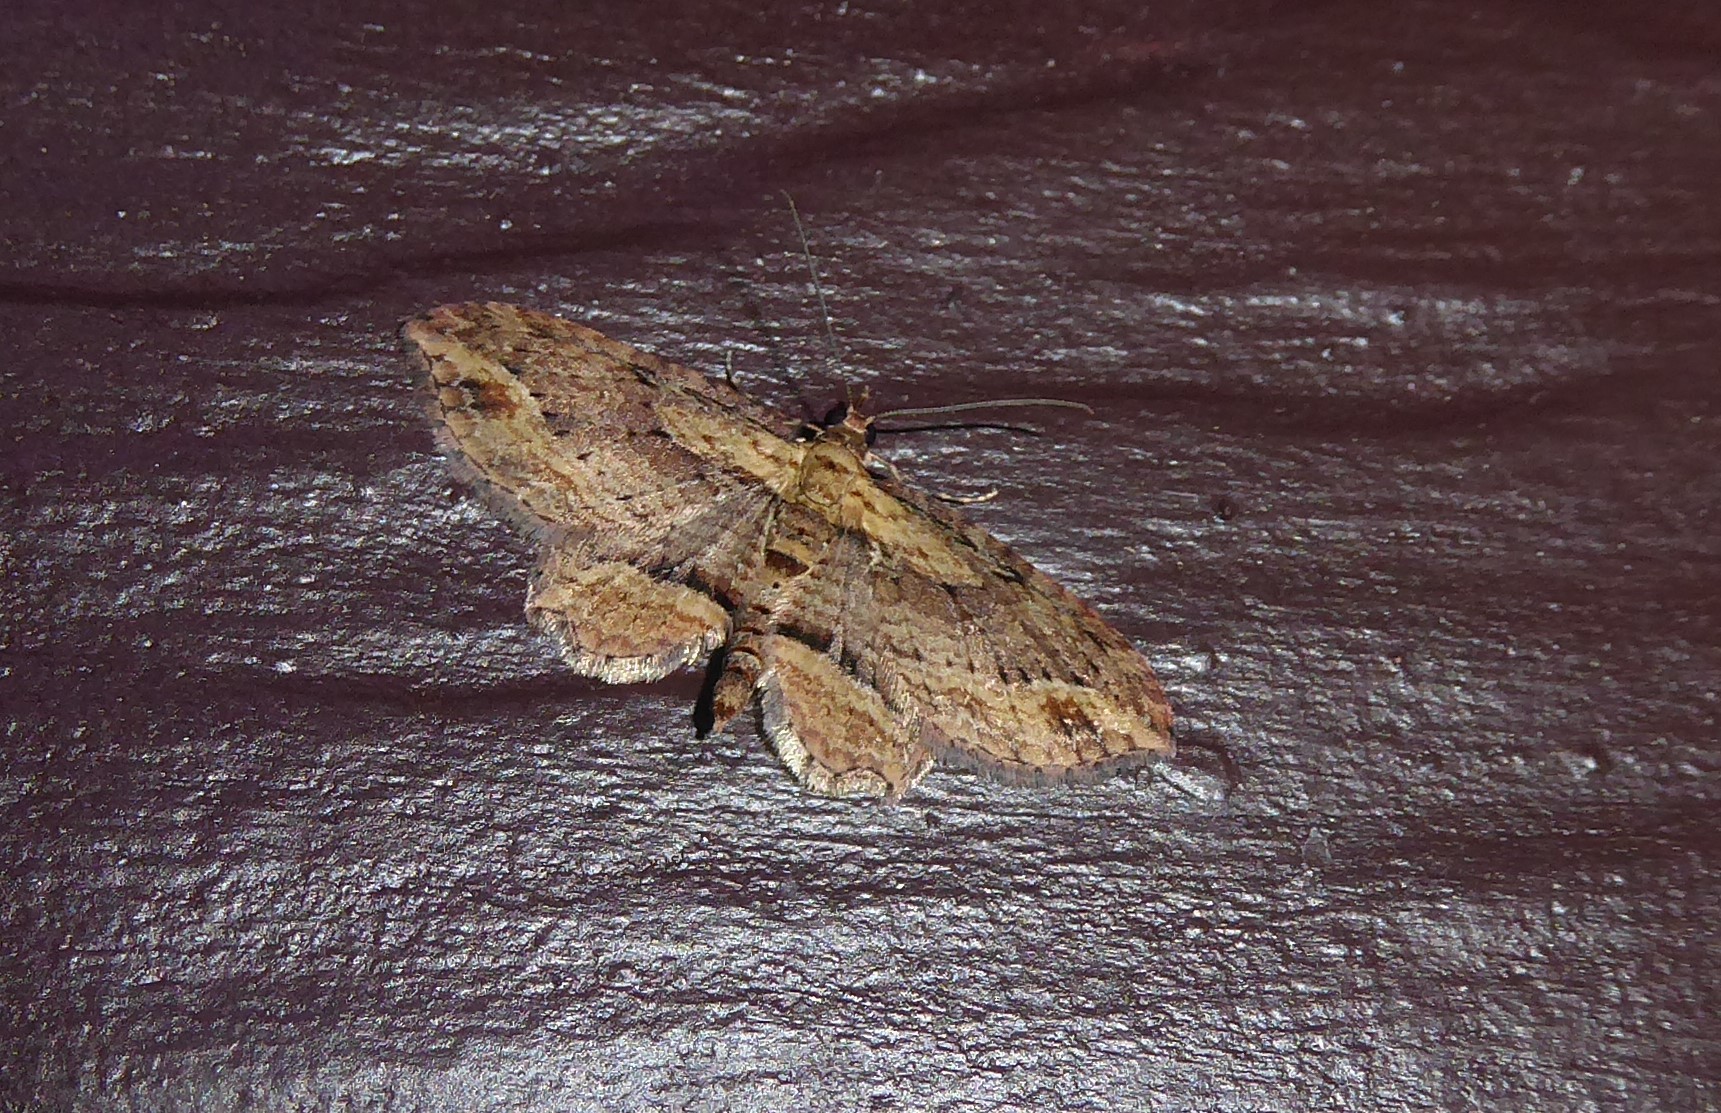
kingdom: Animalia
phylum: Arthropoda
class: Insecta
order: Lepidoptera
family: Geometridae
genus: Chloroclystis
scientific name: Chloroclystis filata
